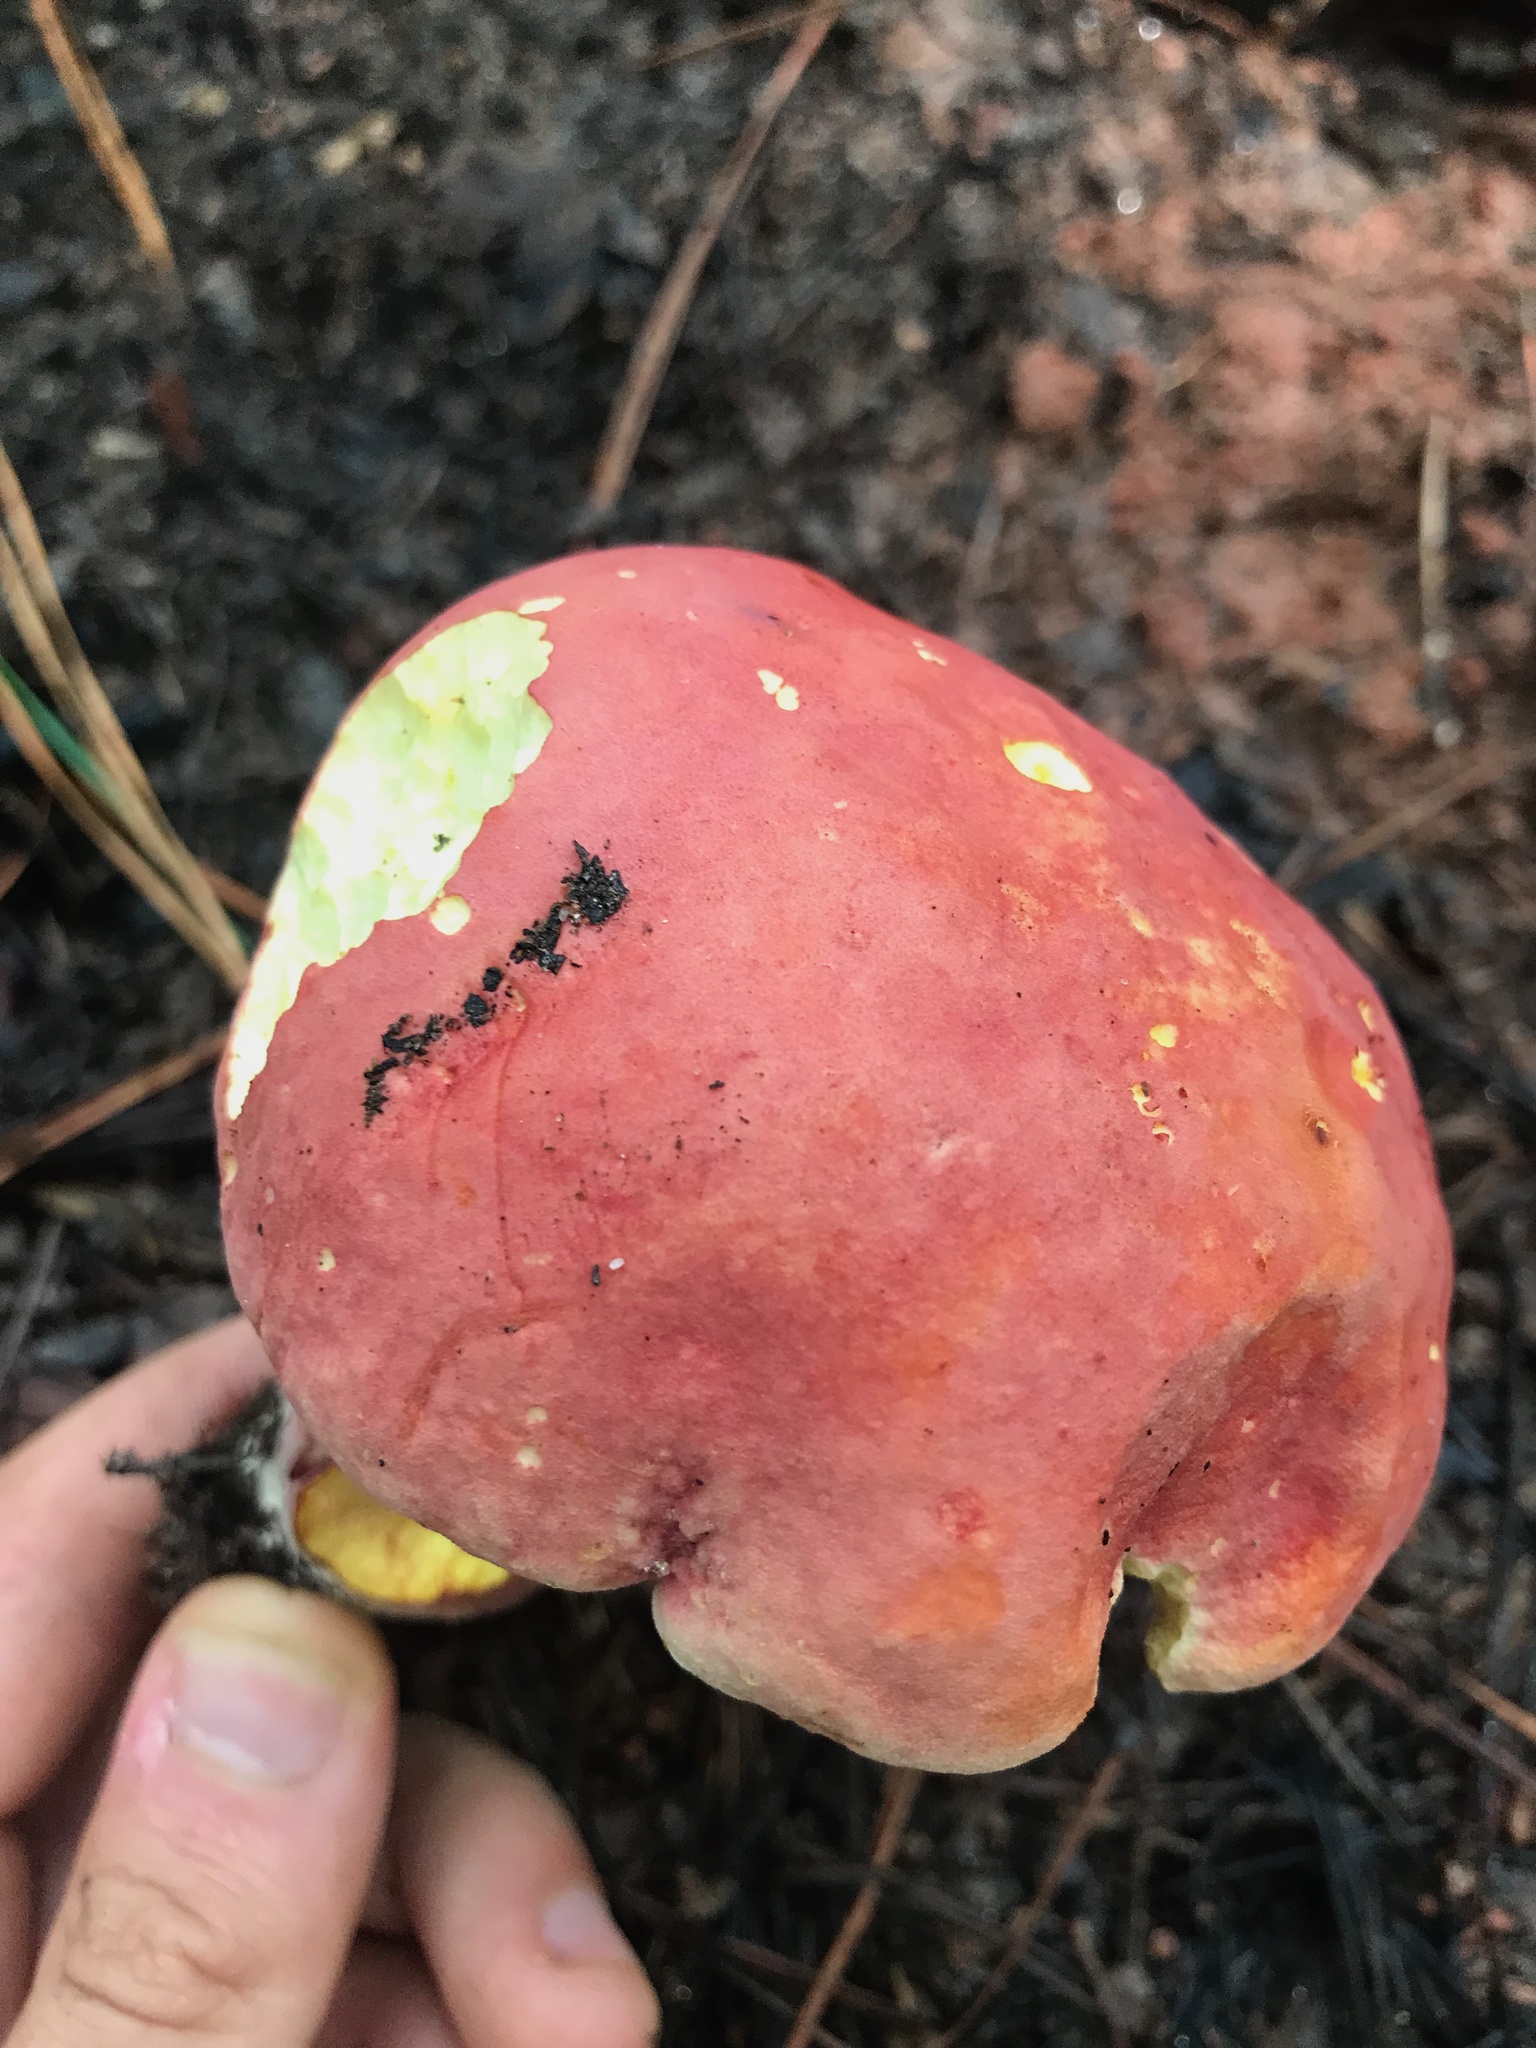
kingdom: Fungi
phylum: Basidiomycota
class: Agaricomycetes
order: Boletales
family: Boletaceae
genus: Baorangia
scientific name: Baorangia bicolor
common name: Two-colored bolete
